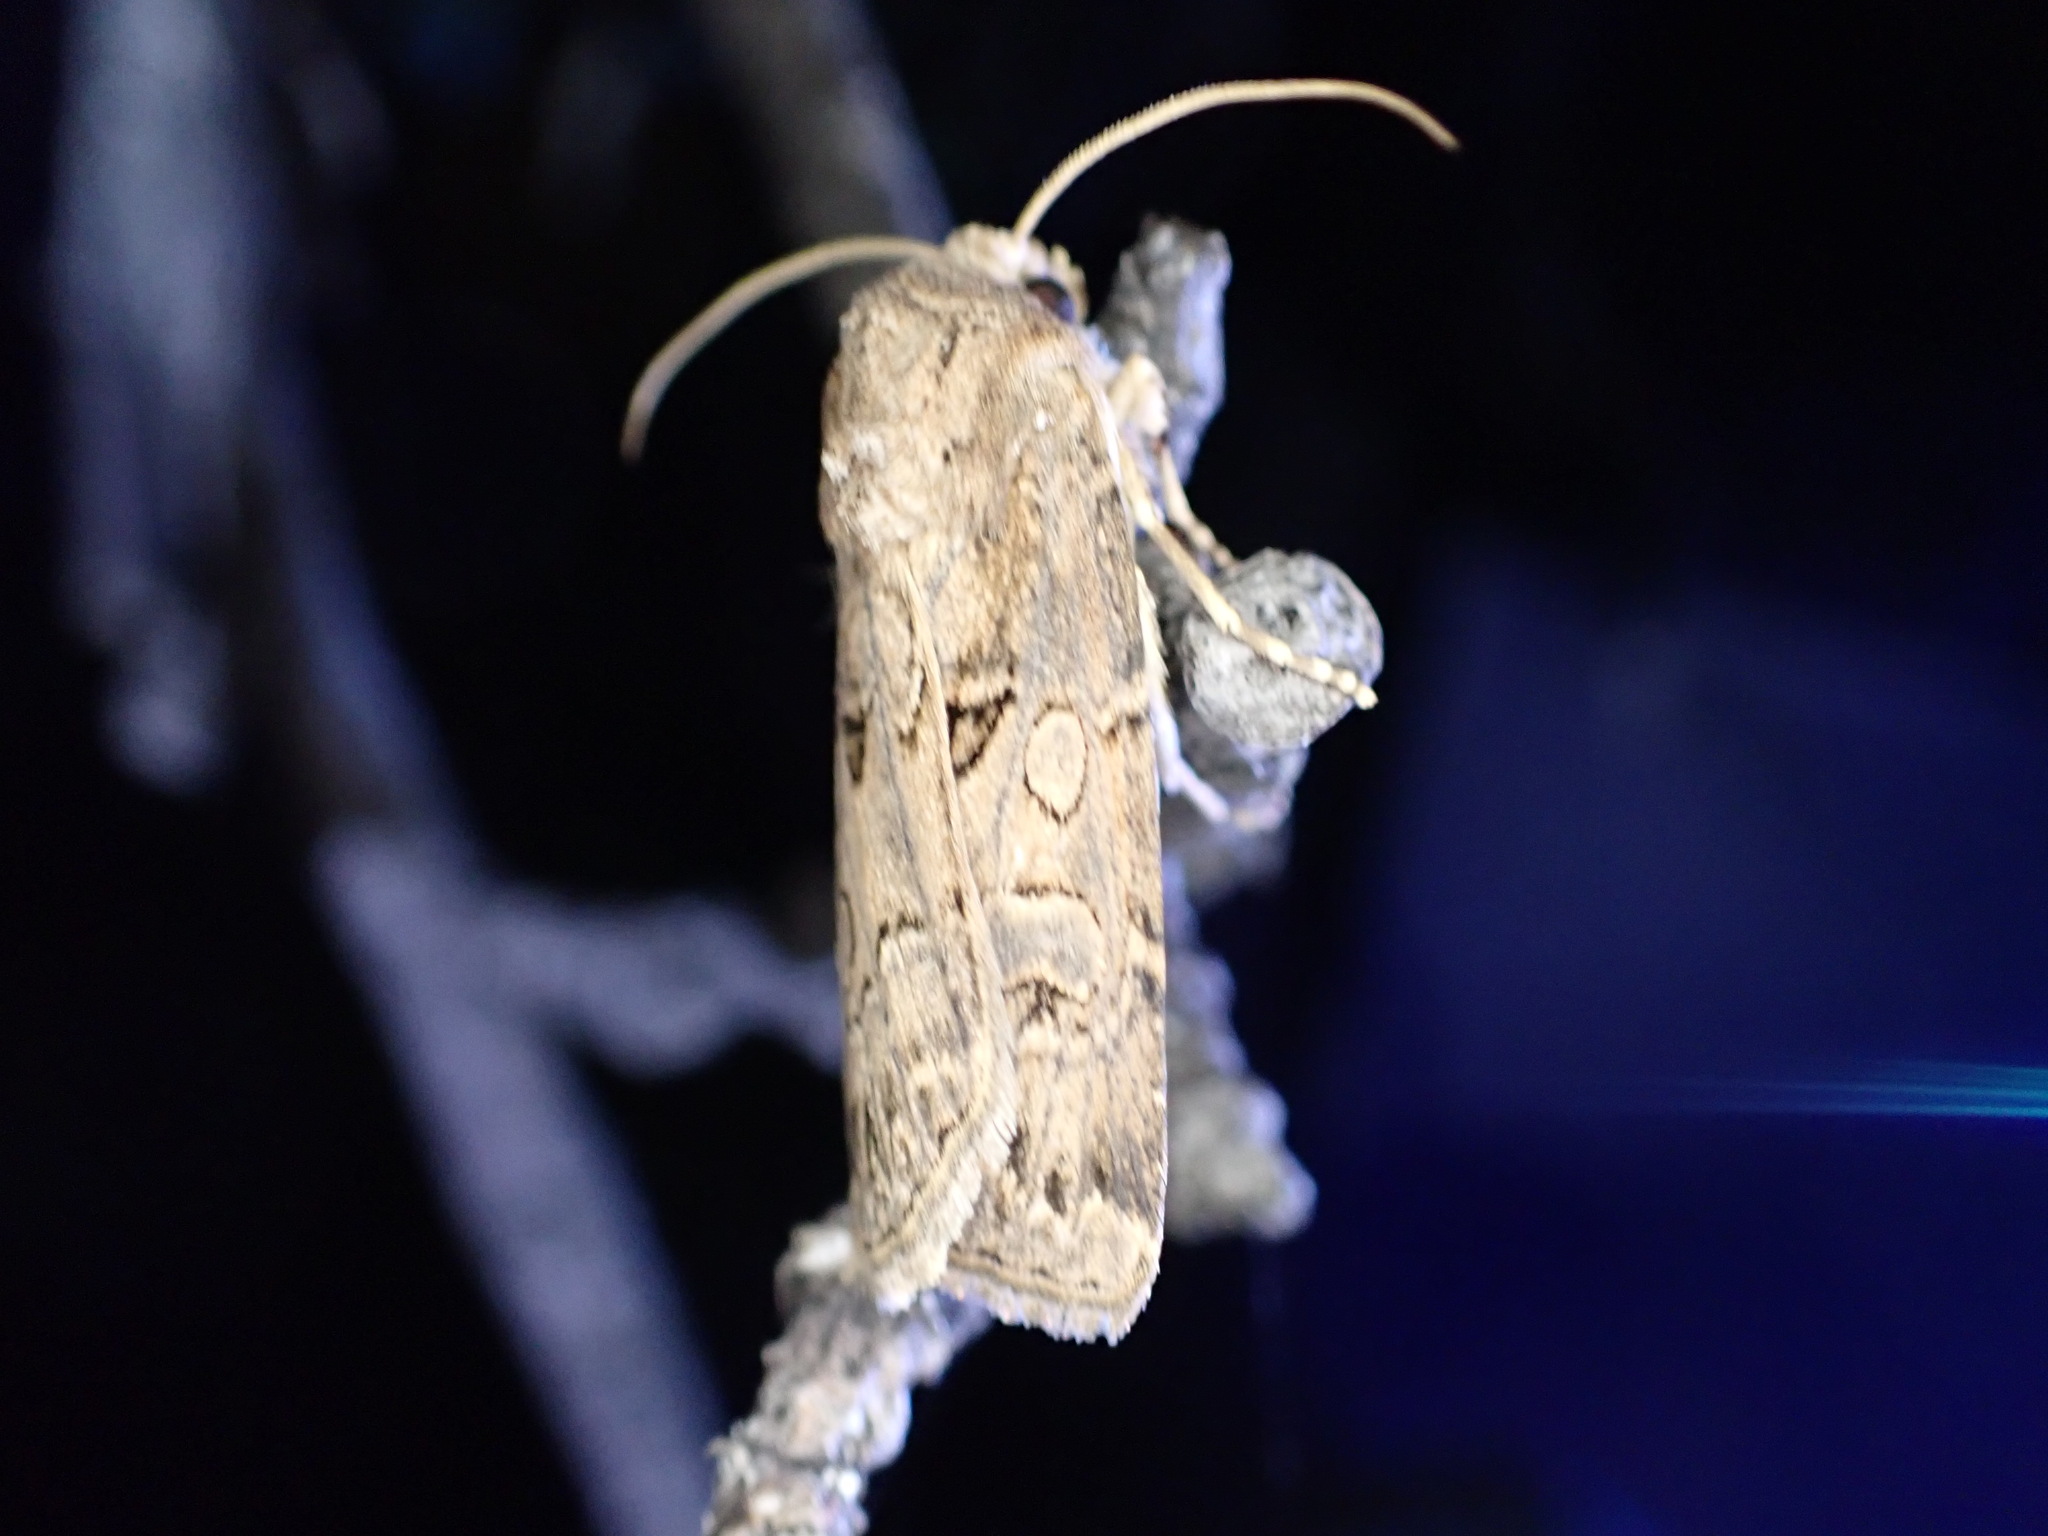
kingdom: Animalia
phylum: Arthropoda
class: Insecta
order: Lepidoptera
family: Noctuidae
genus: Agrotis
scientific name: Agrotis bigramma
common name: Great dart
